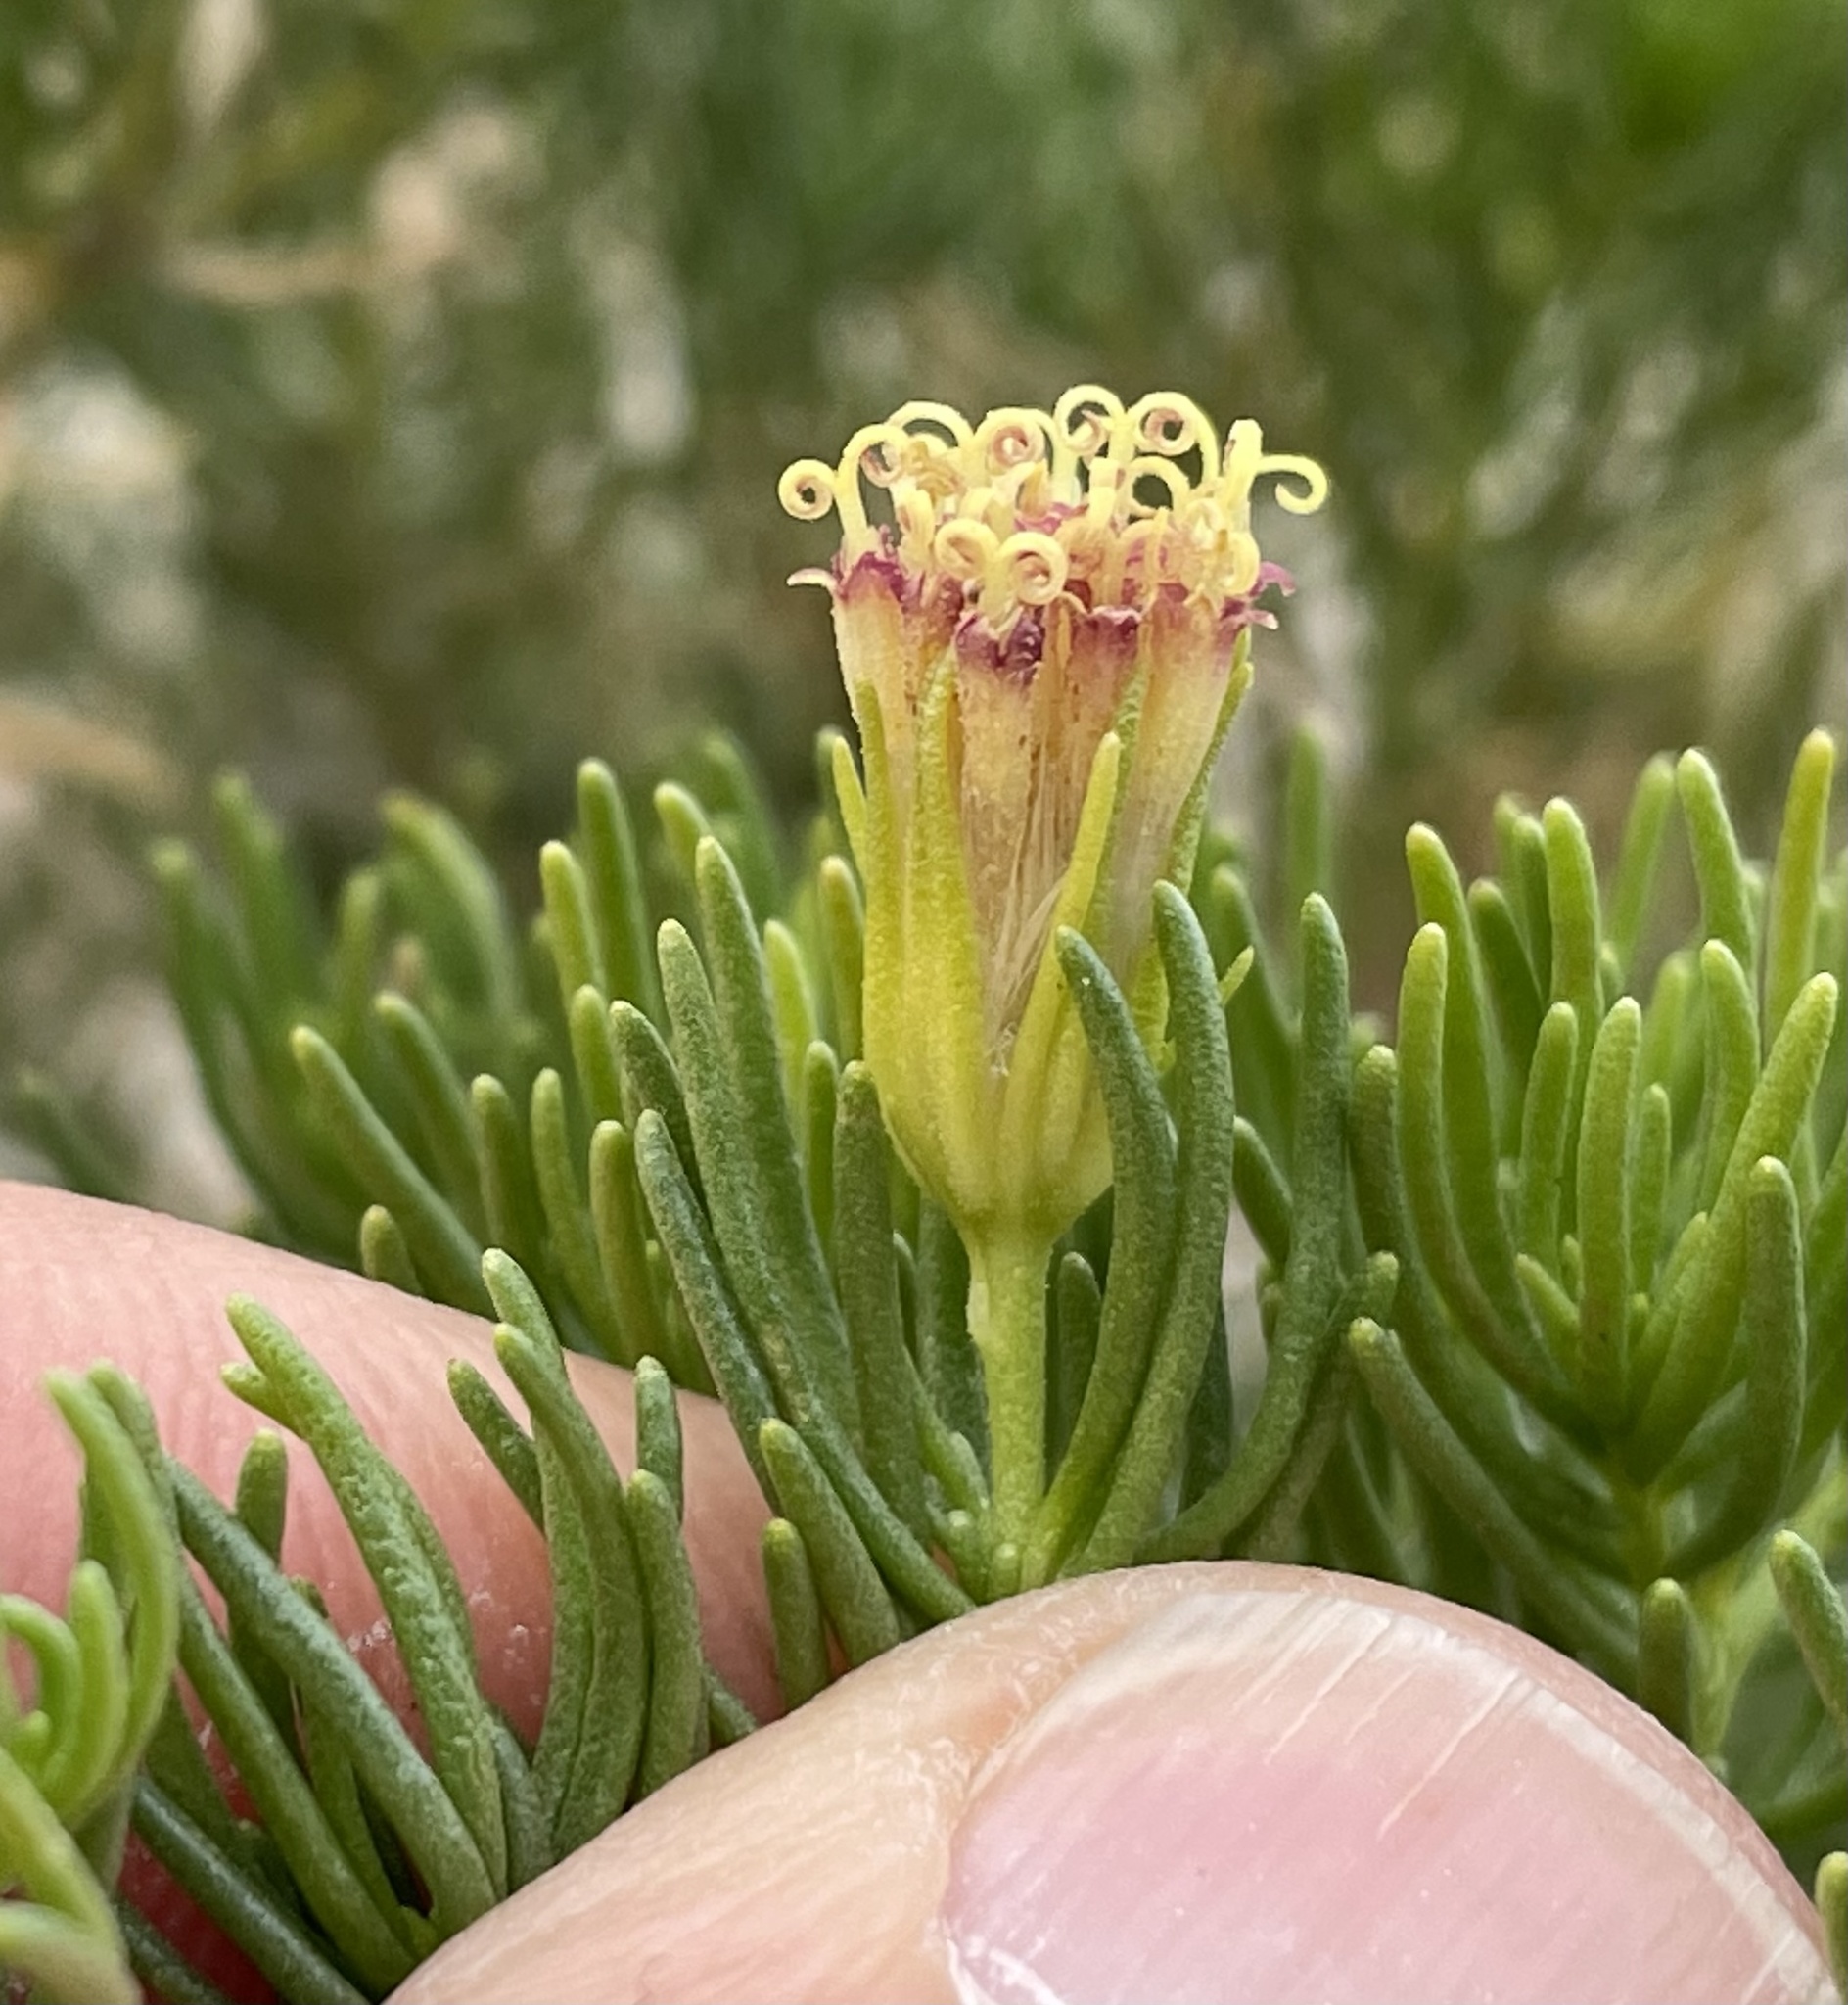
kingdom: Plantae
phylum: Tracheophyta
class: Magnoliopsida
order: Asterales
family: Asteraceae
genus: Peucephyllum
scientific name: Peucephyllum schottii
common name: Pygmy-cedar
